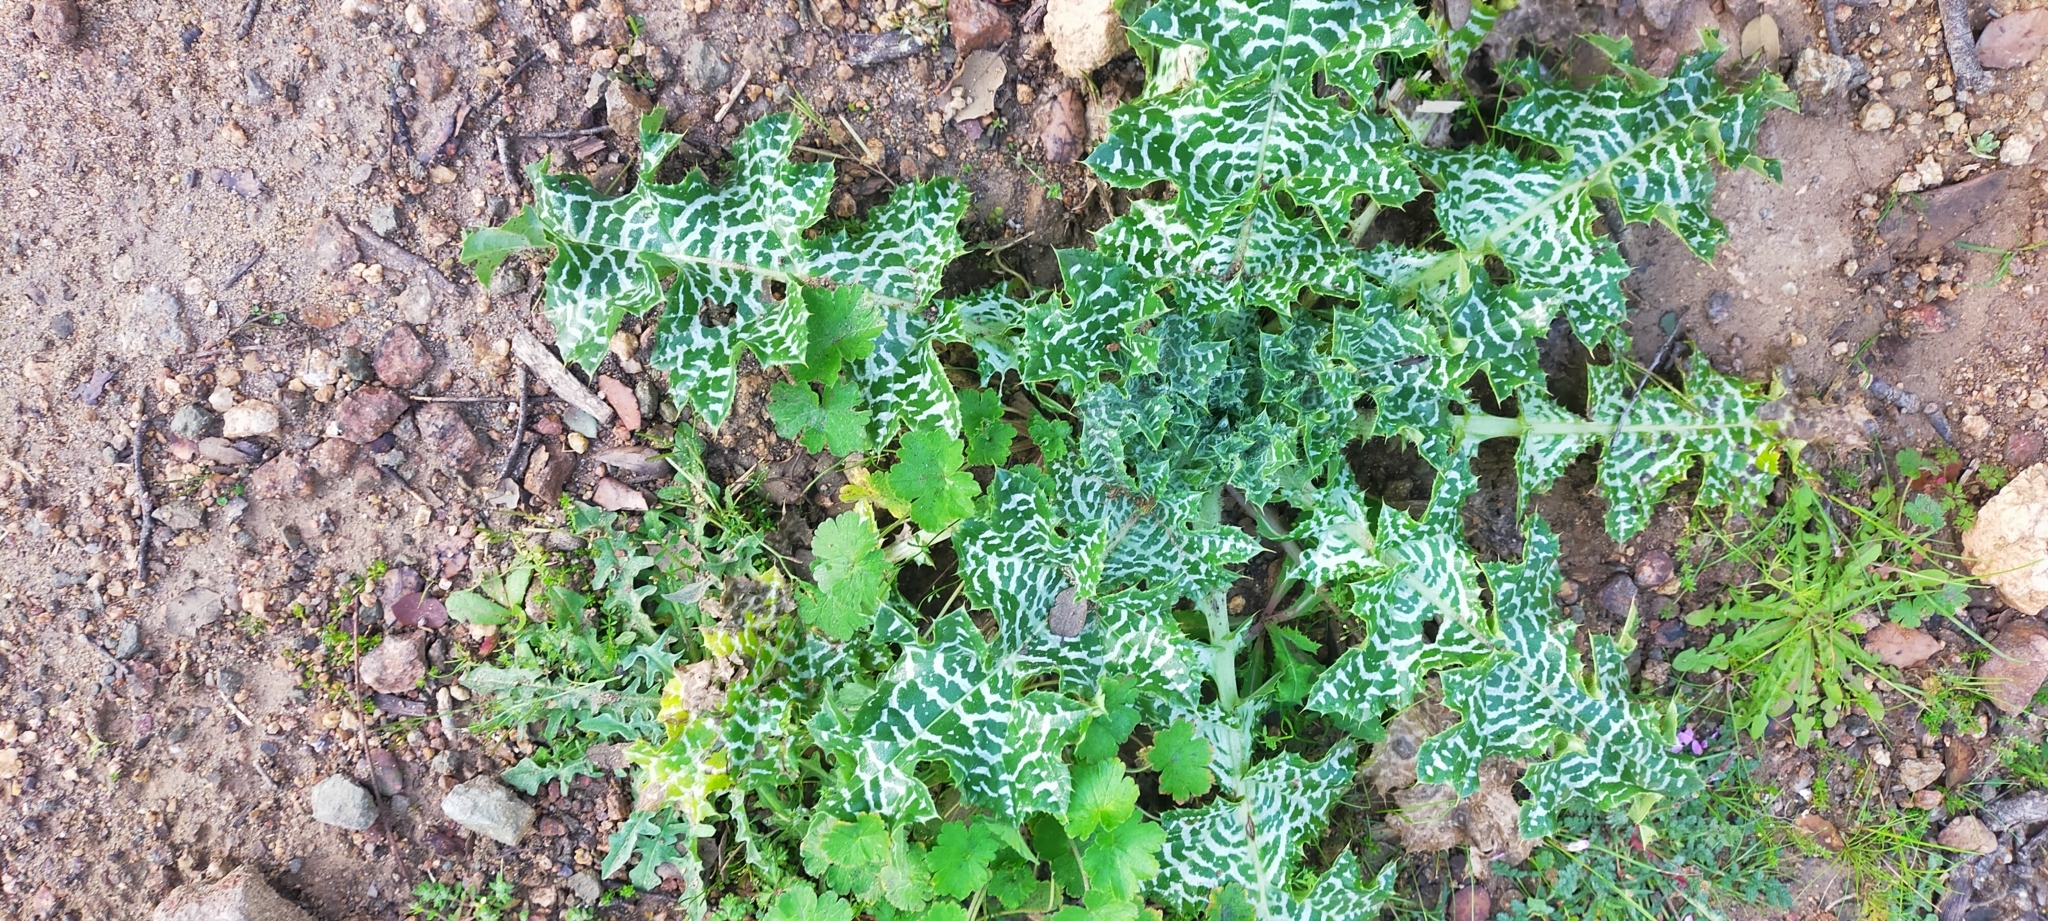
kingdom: Plantae
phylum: Tracheophyta
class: Magnoliopsida
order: Asterales
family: Asteraceae
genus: Silybum
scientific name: Silybum marianum
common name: Milk thistle
